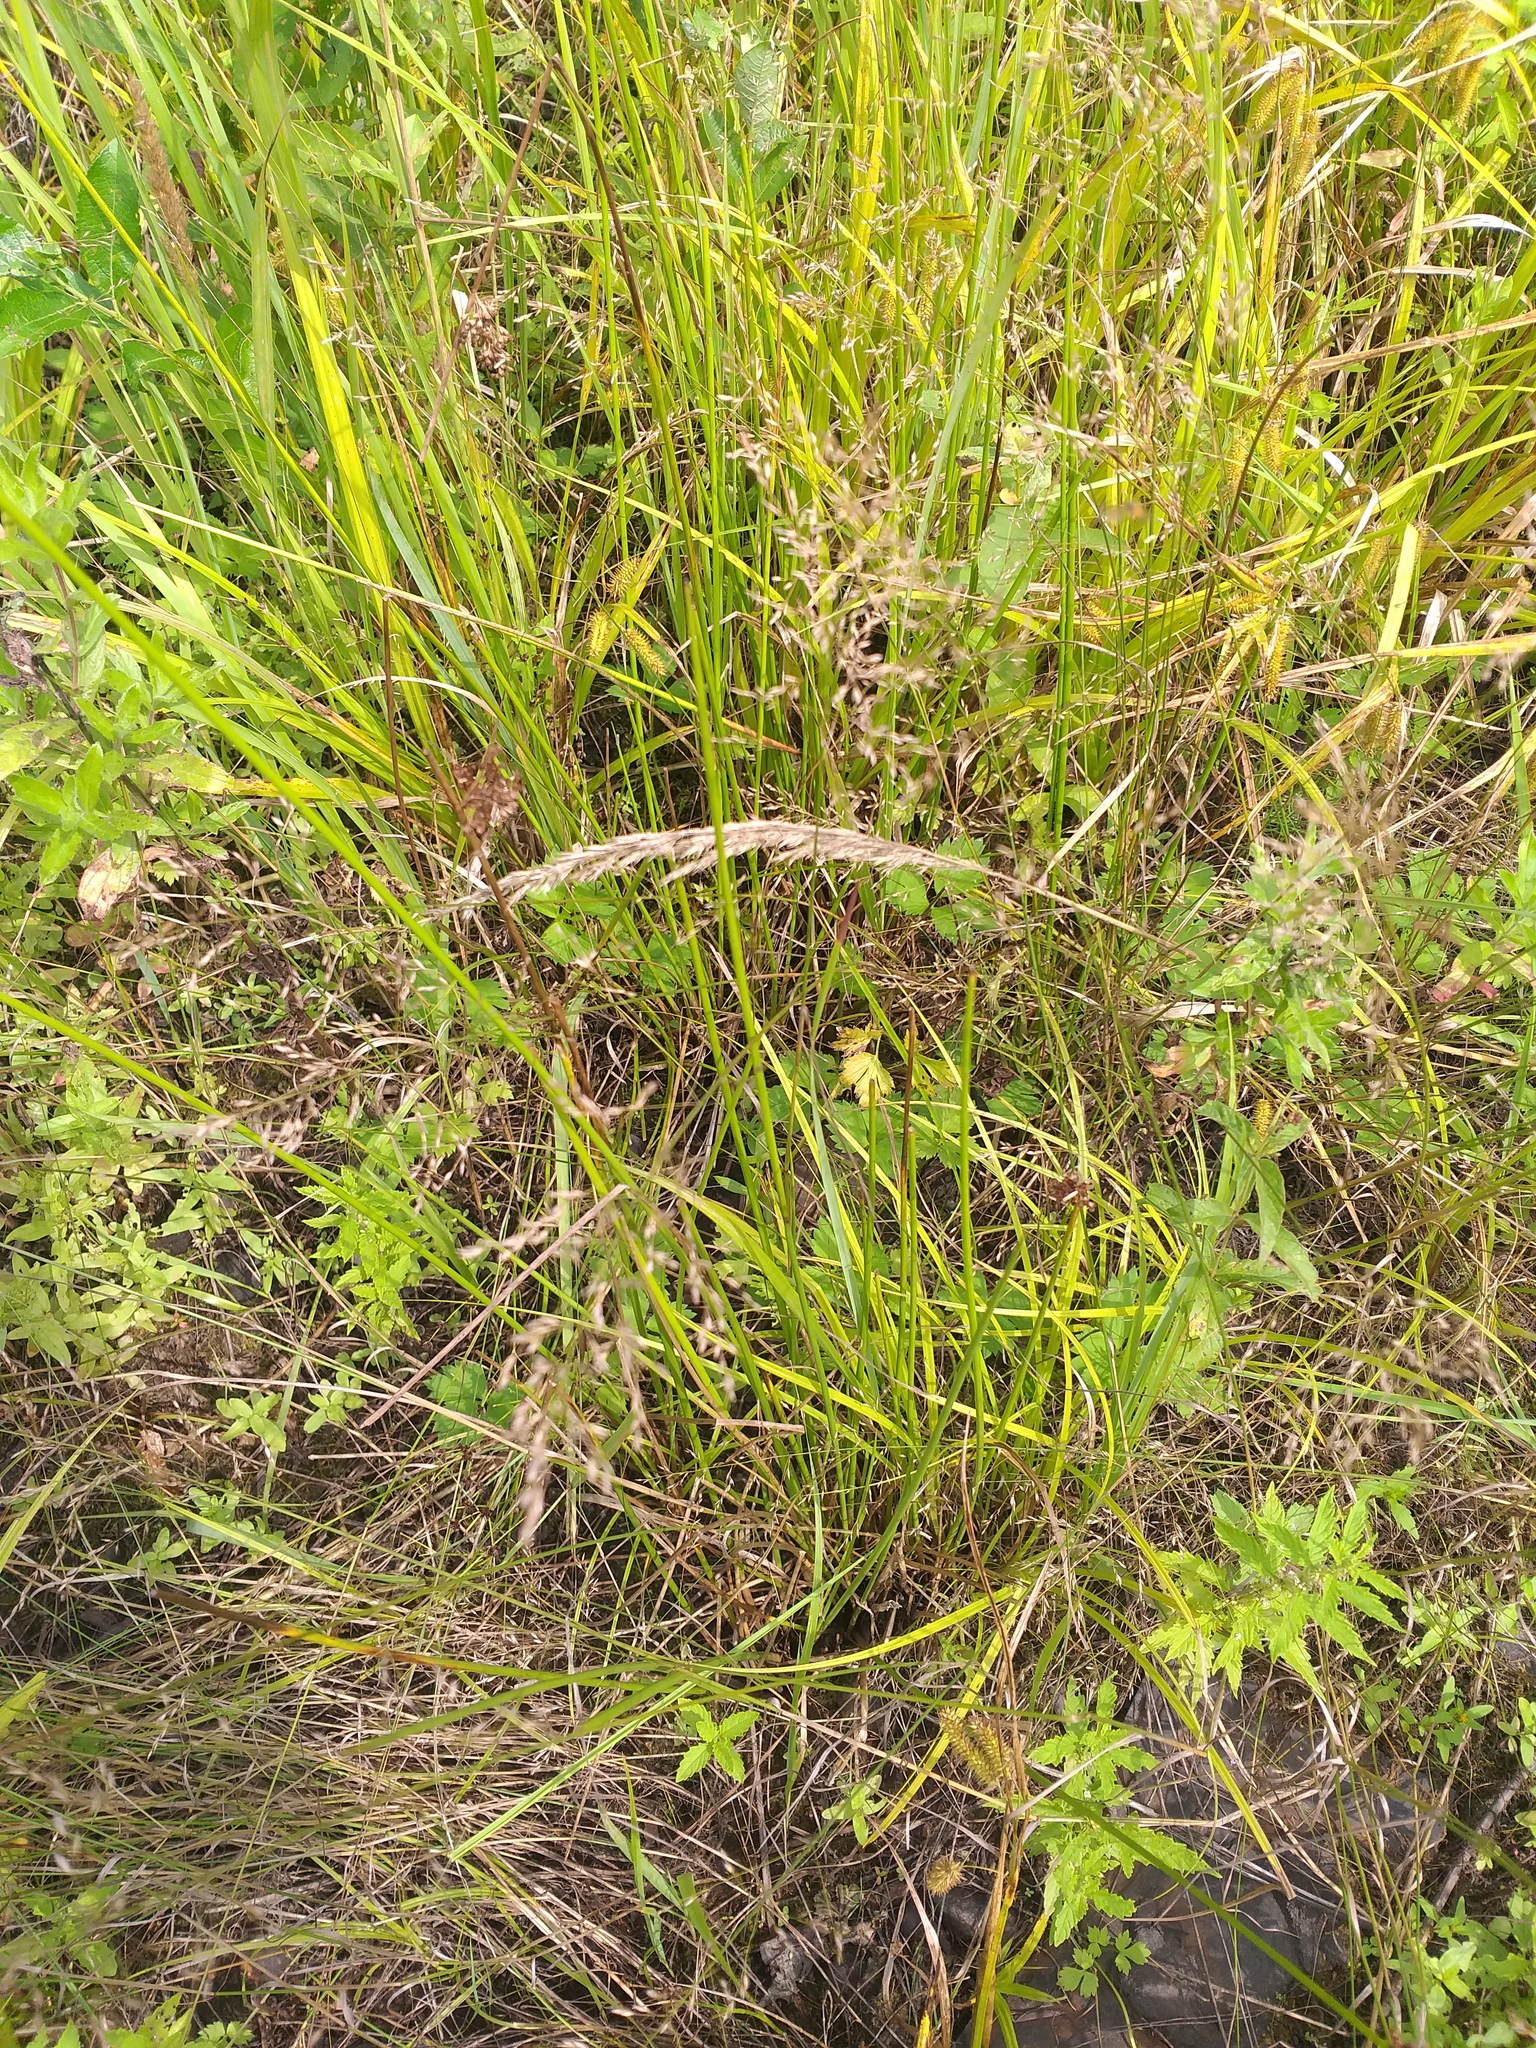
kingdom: Plantae
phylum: Tracheophyta
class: Liliopsida
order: Poales
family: Juncaceae
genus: Juncus
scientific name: Juncus effusus
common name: Soft rush
